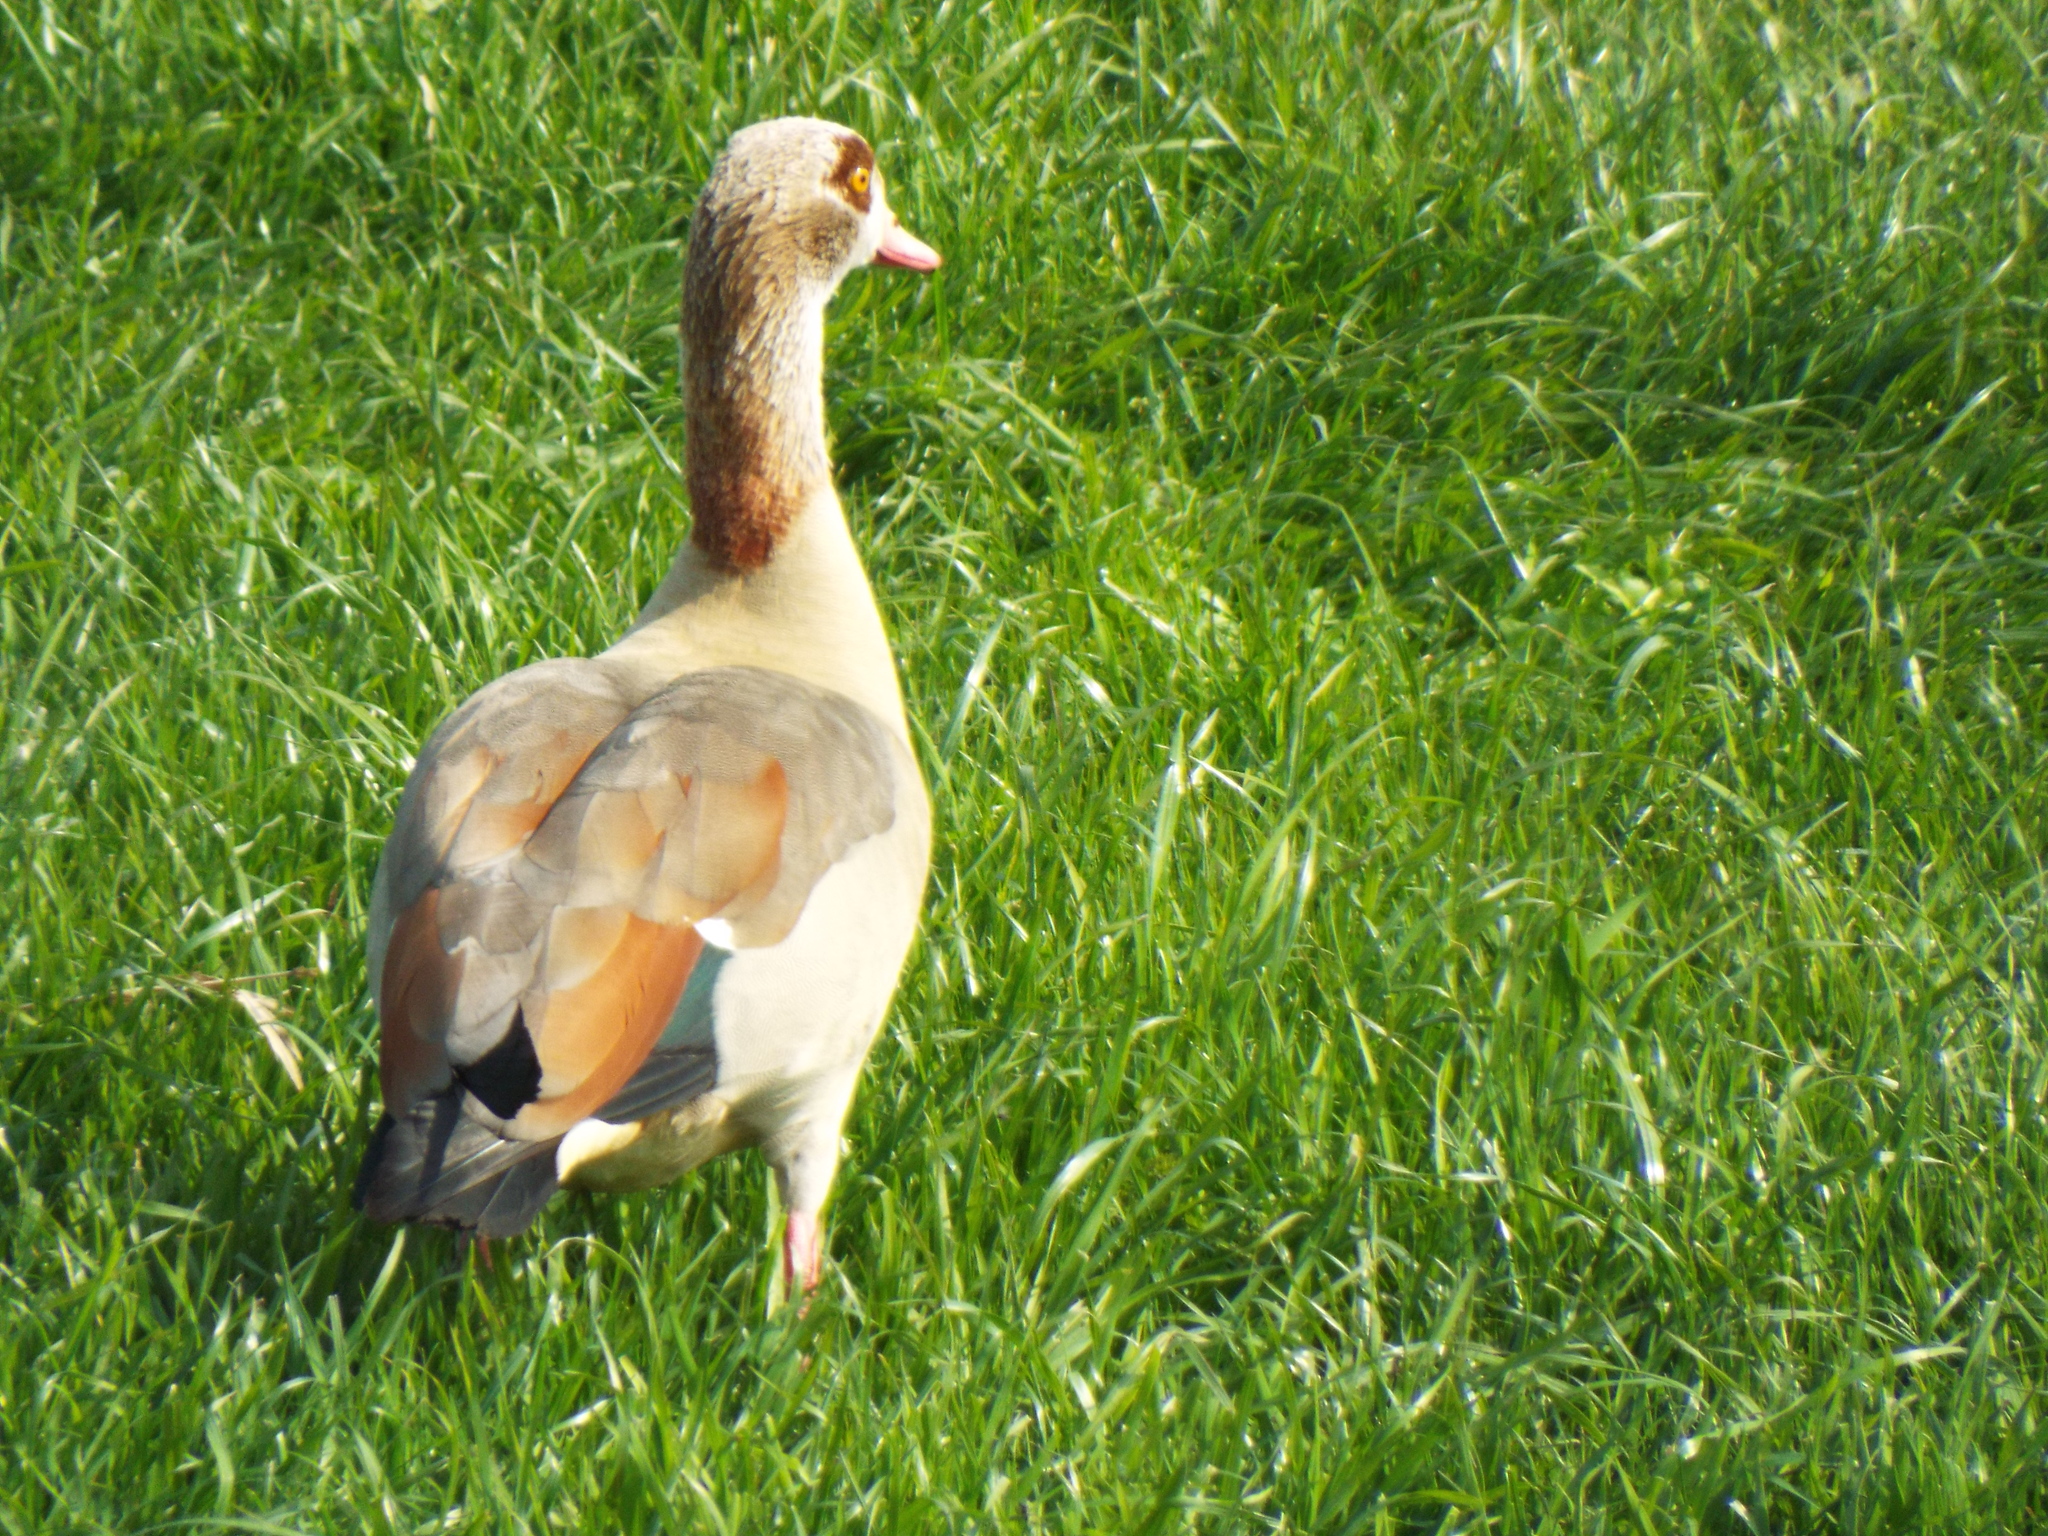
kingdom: Animalia
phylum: Chordata
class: Aves
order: Anseriformes
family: Anatidae
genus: Alopochen
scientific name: Alopochen aegyptiaca
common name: Egyptian goose
